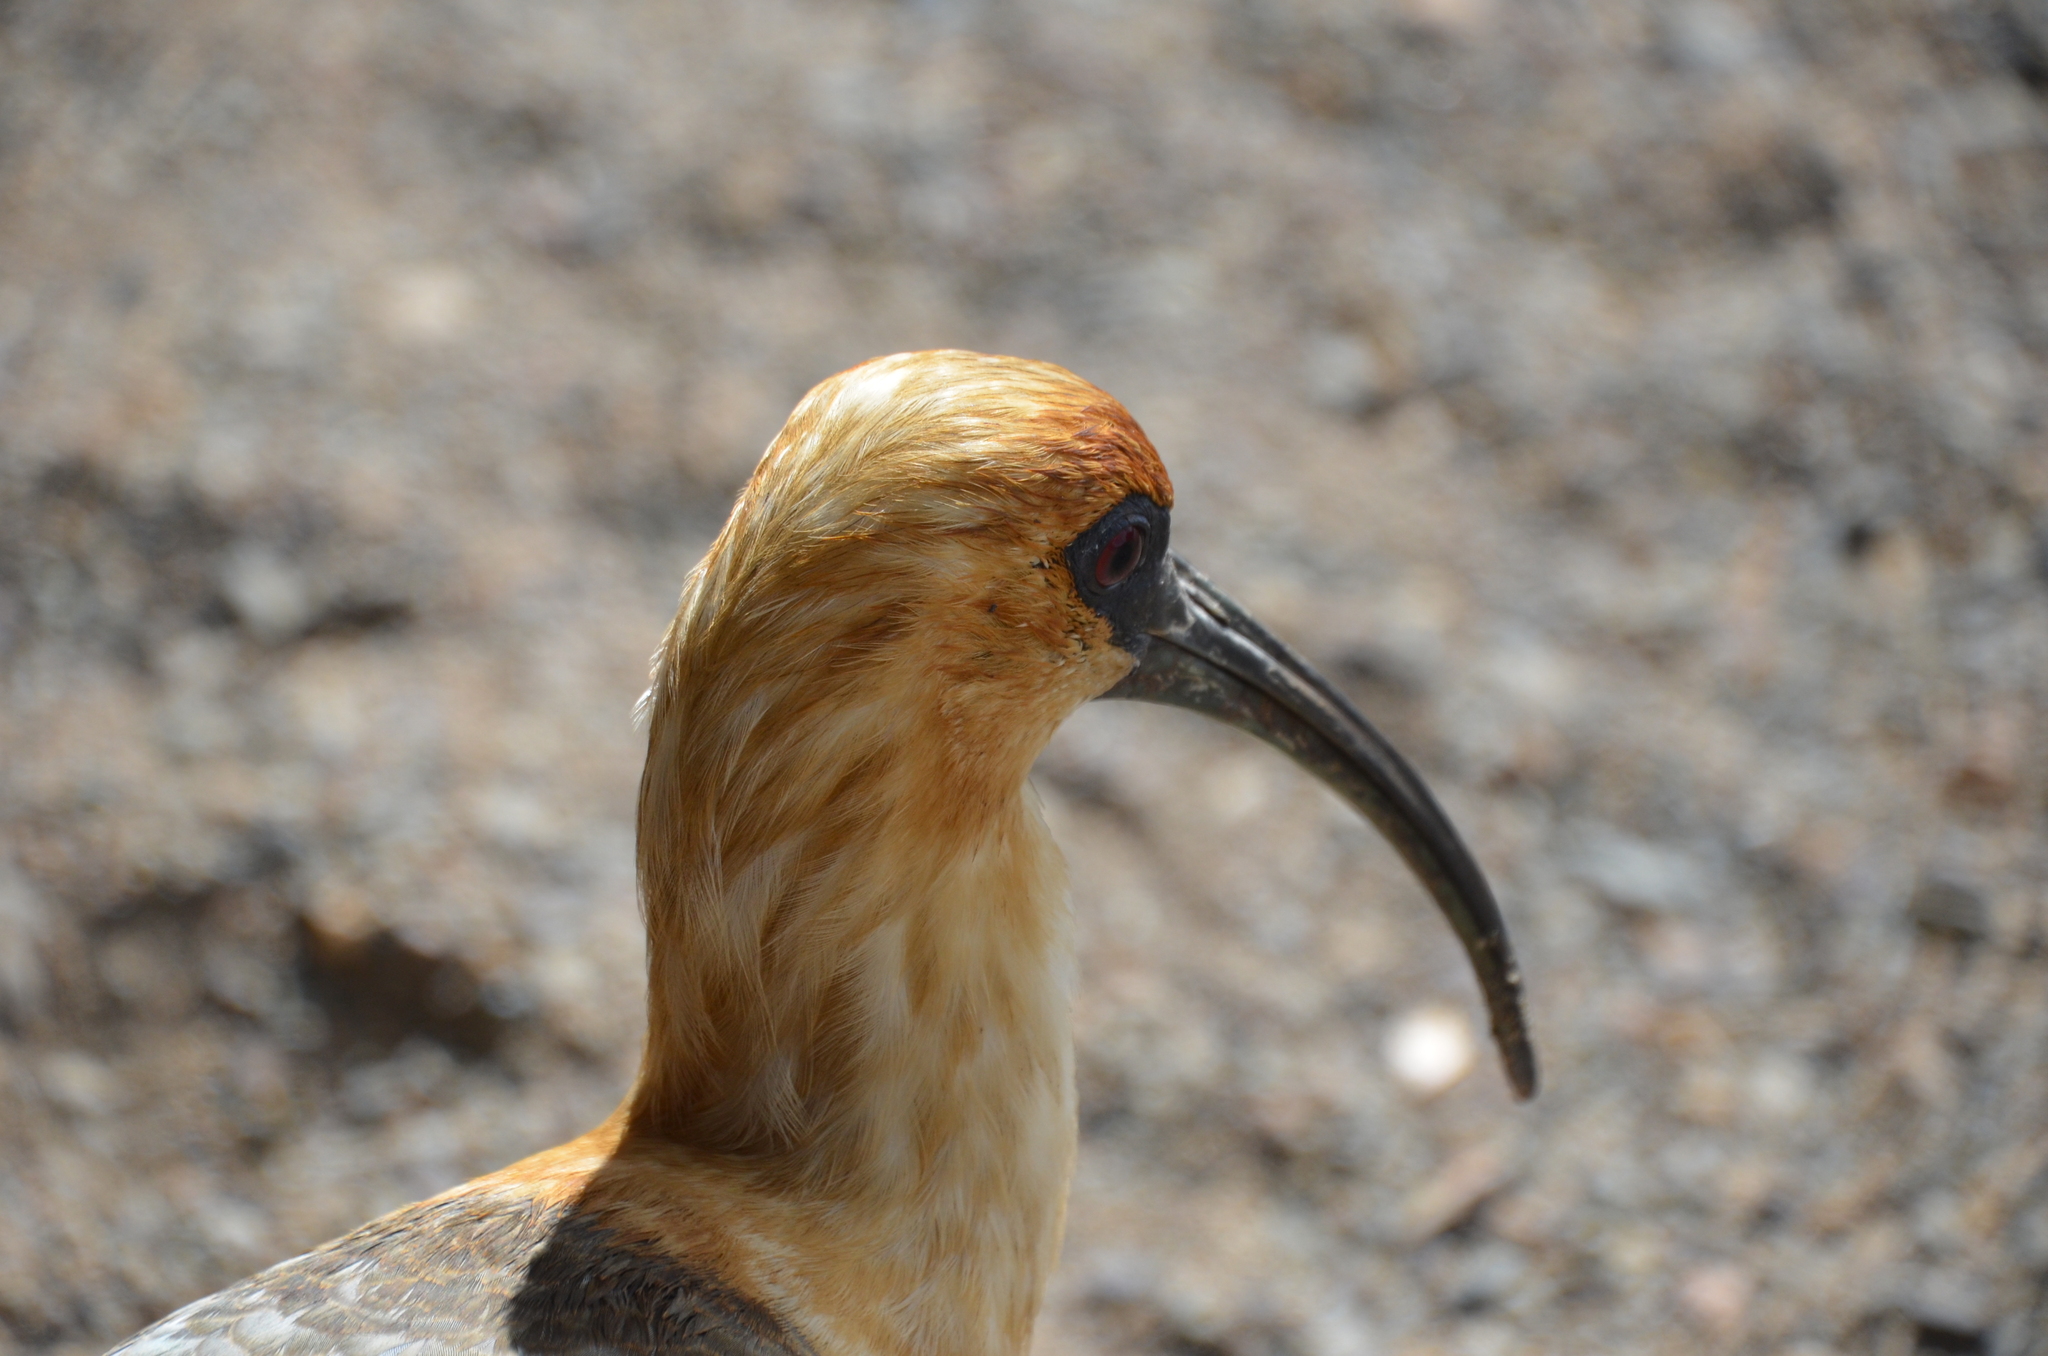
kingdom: Animalia
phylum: Chordata
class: Aves
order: Pelecaniformes
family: Threskiornithidae
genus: Theristicus
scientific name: Theristicus melanopis
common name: Black-faced ibis
